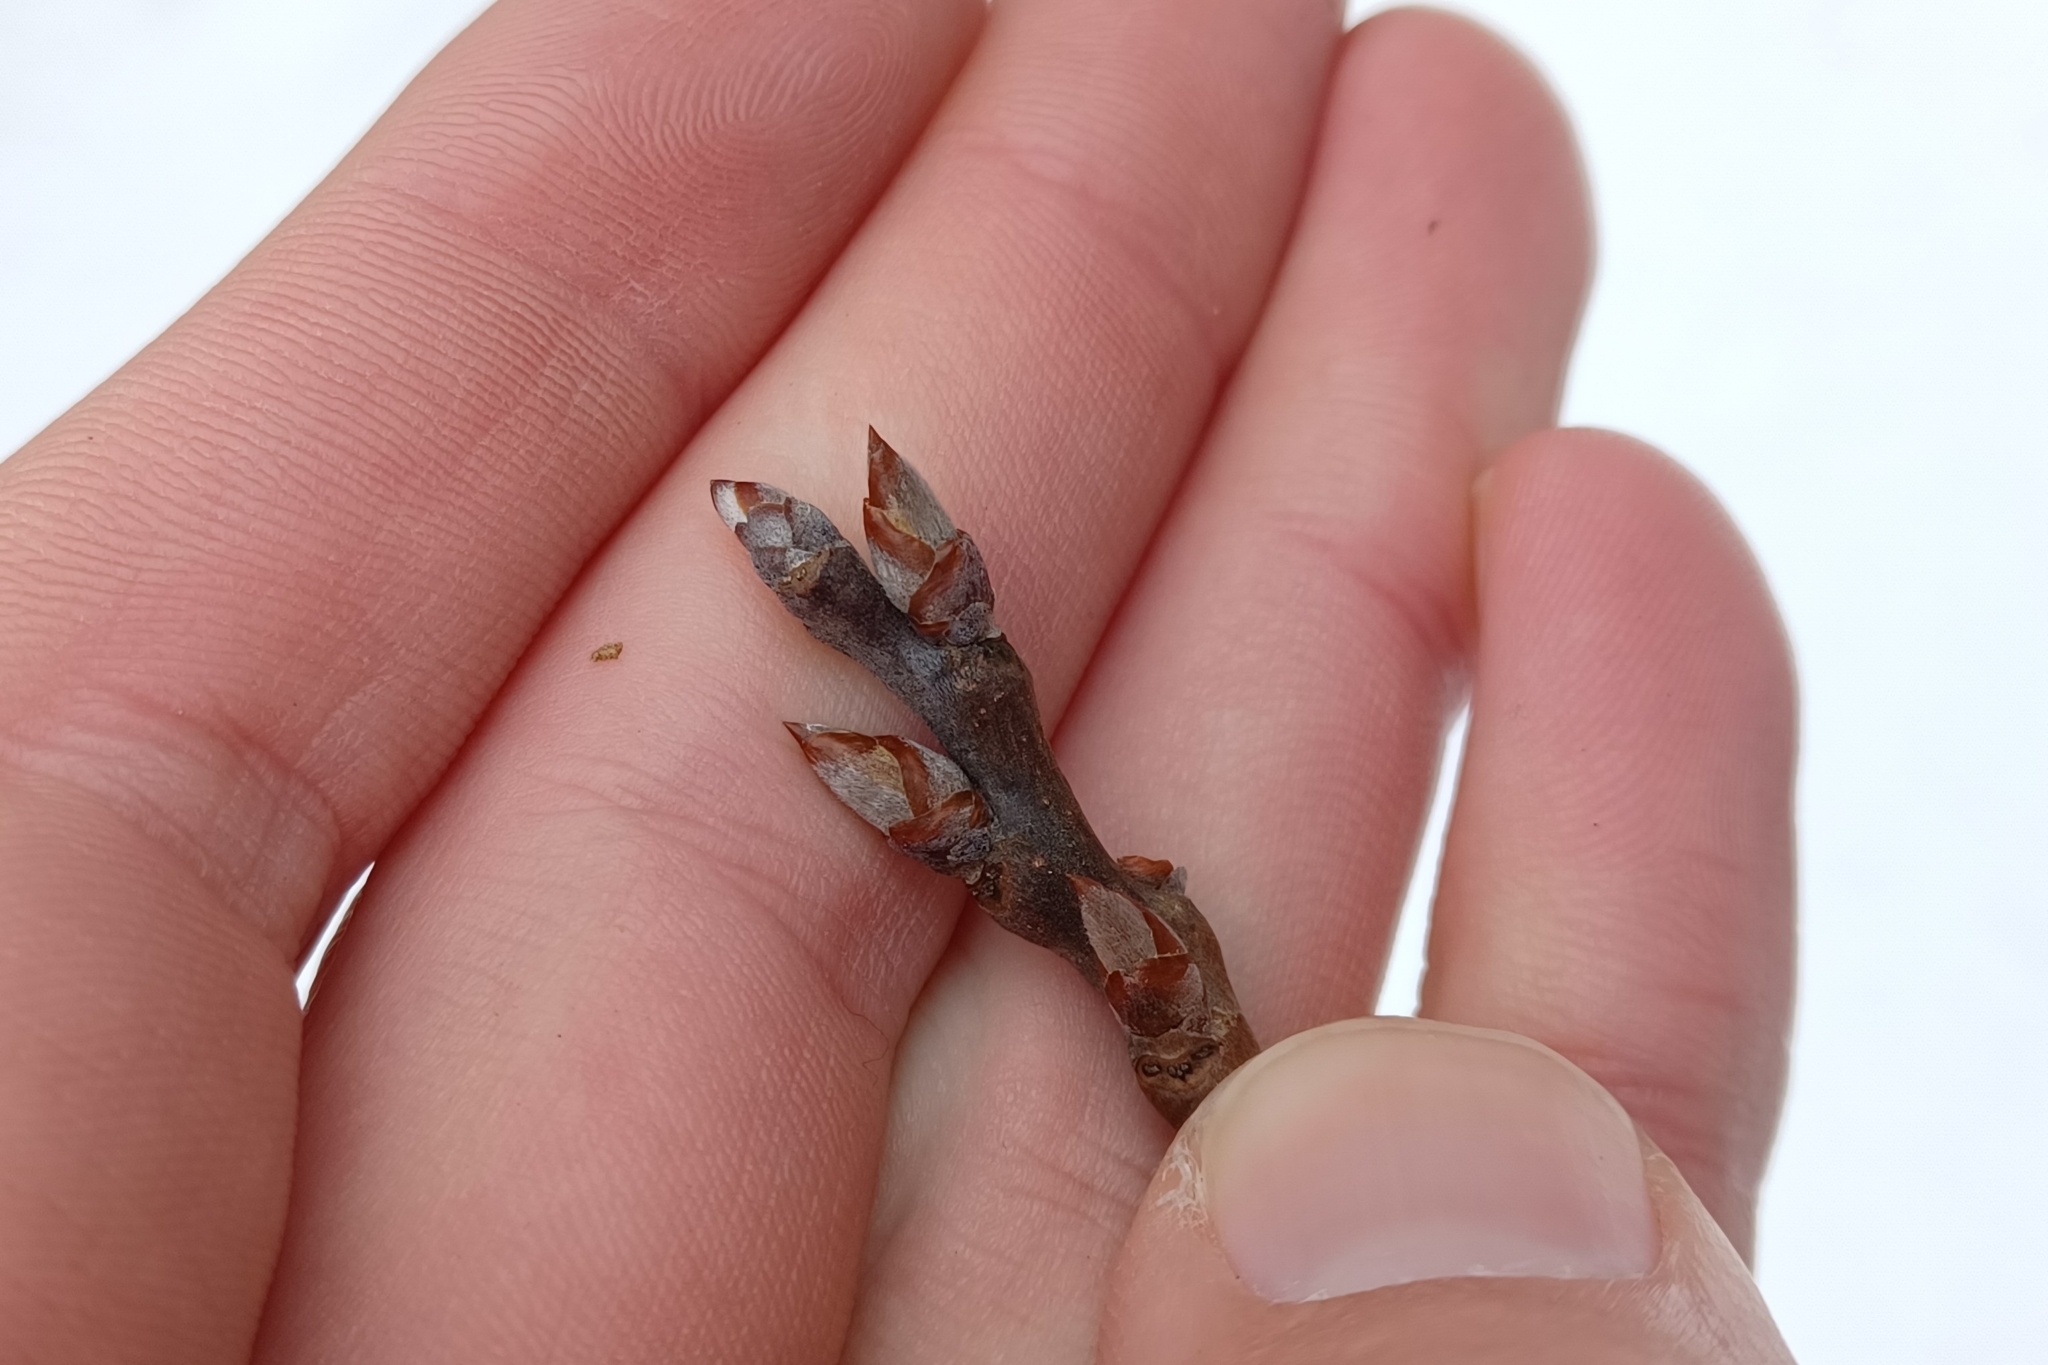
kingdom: Plantae
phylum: Tracheophyta
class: Magnoliopsida
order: Malpighiales
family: Salicaceae
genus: Populus
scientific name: Populus grandidentata
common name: Bigtooth aspen
